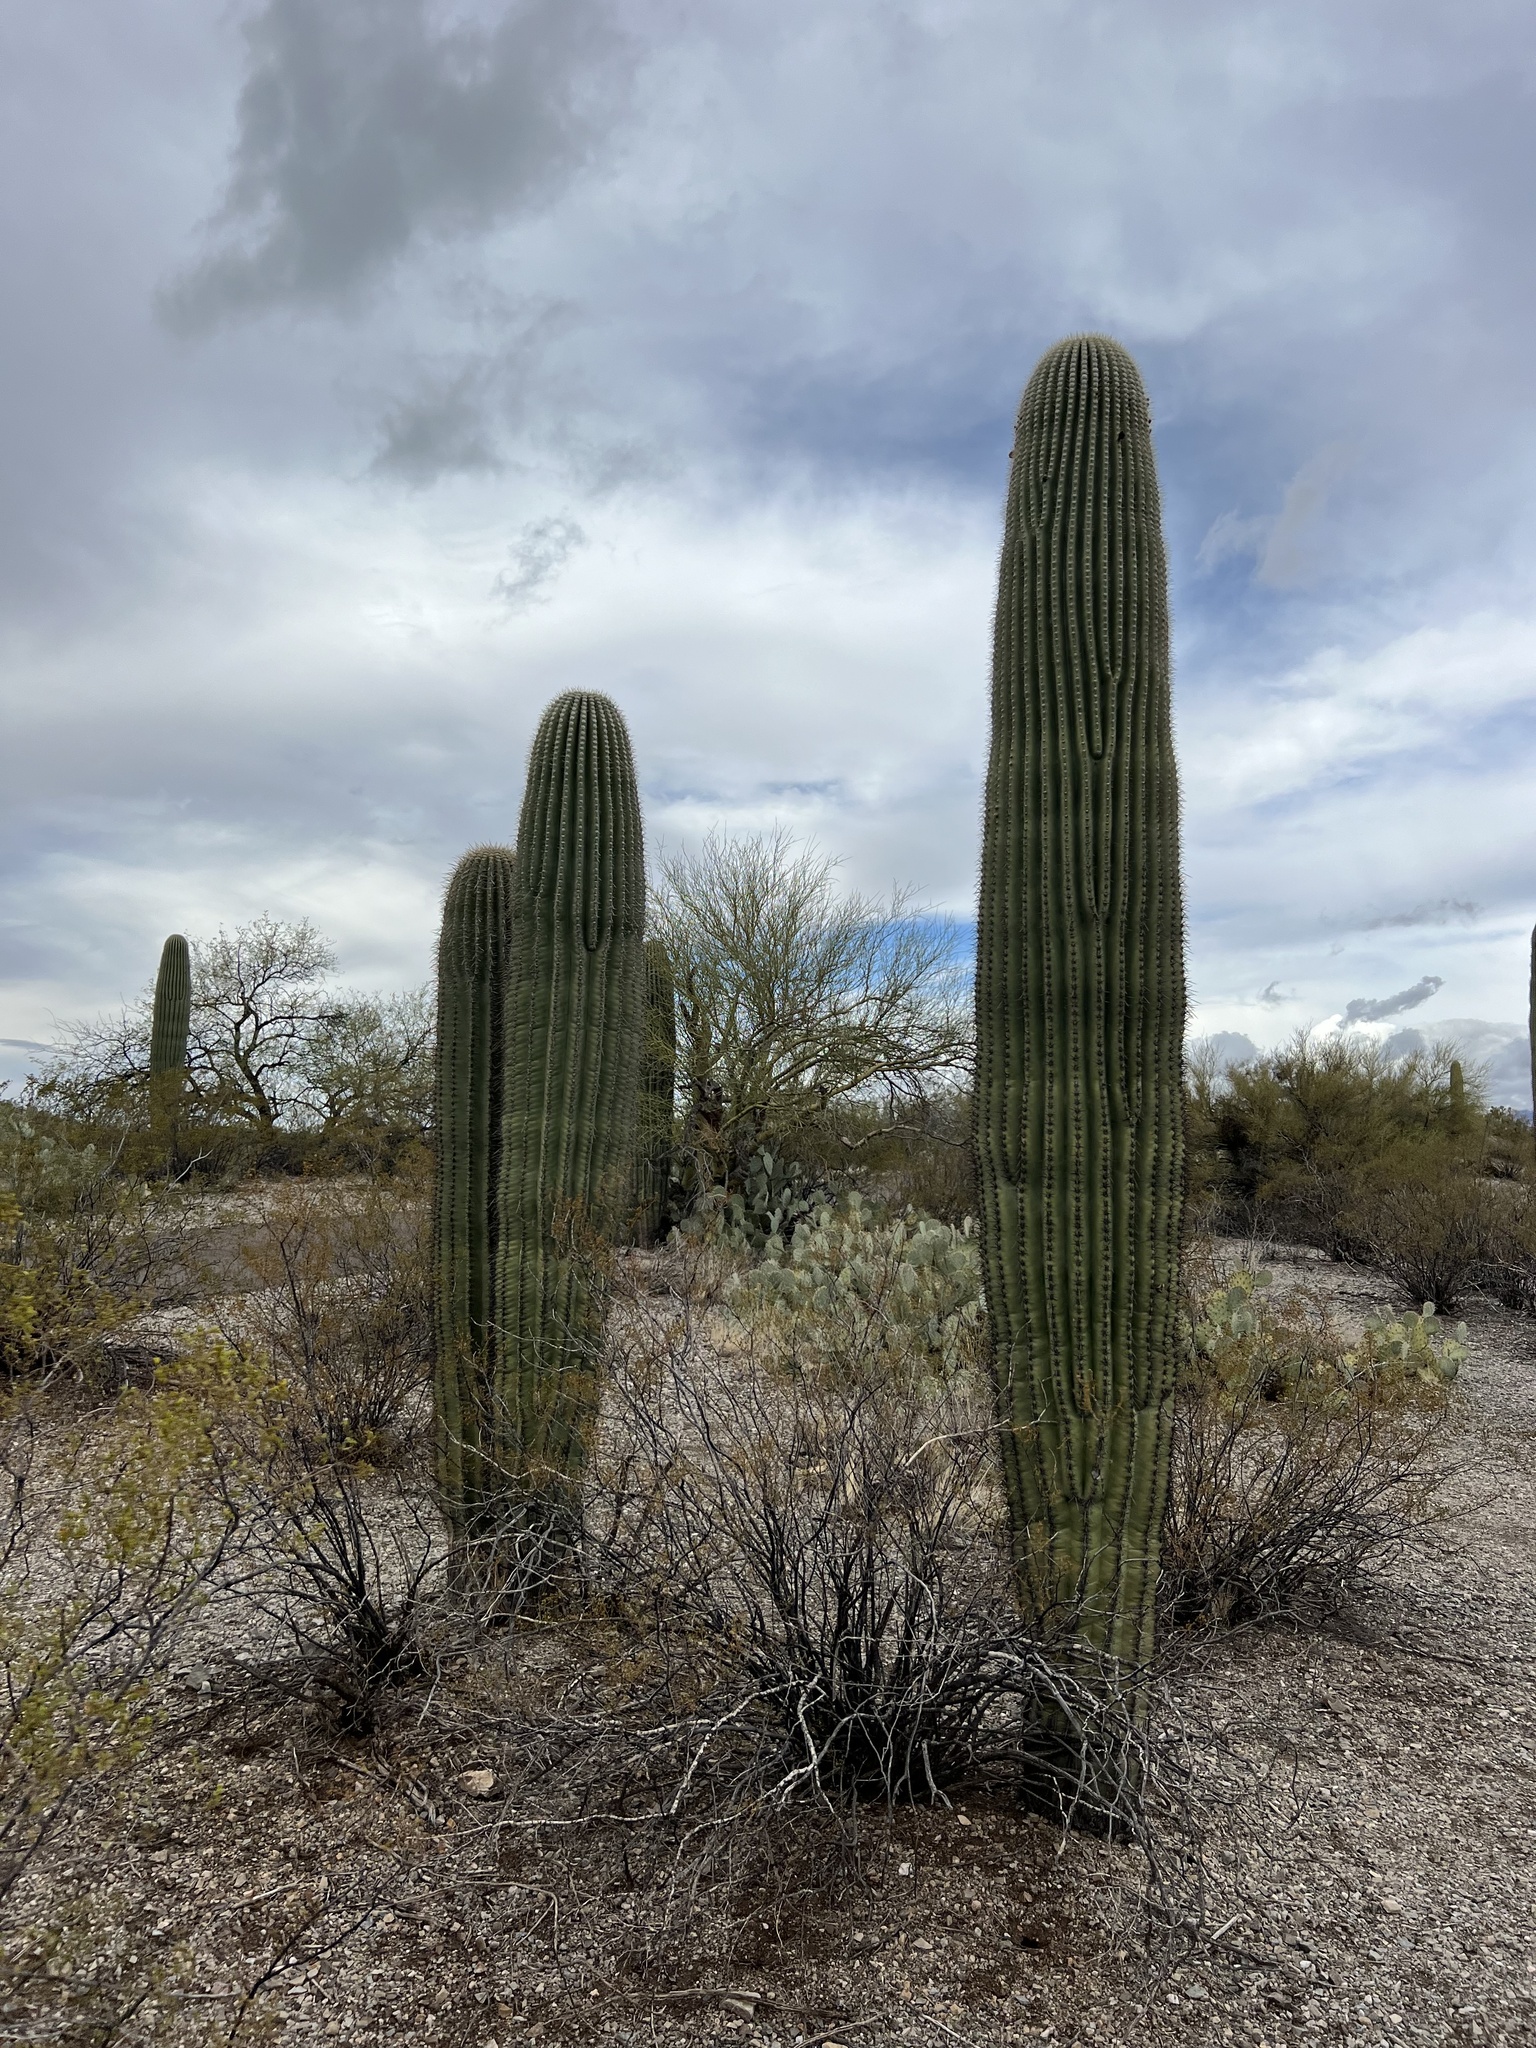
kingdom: Plantae
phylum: Tracheophyta
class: Magnoliopsida
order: Caryophyllales
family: Cactaceae
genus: Carnegiea
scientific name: Carnegiea gigantea
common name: Saguaro
